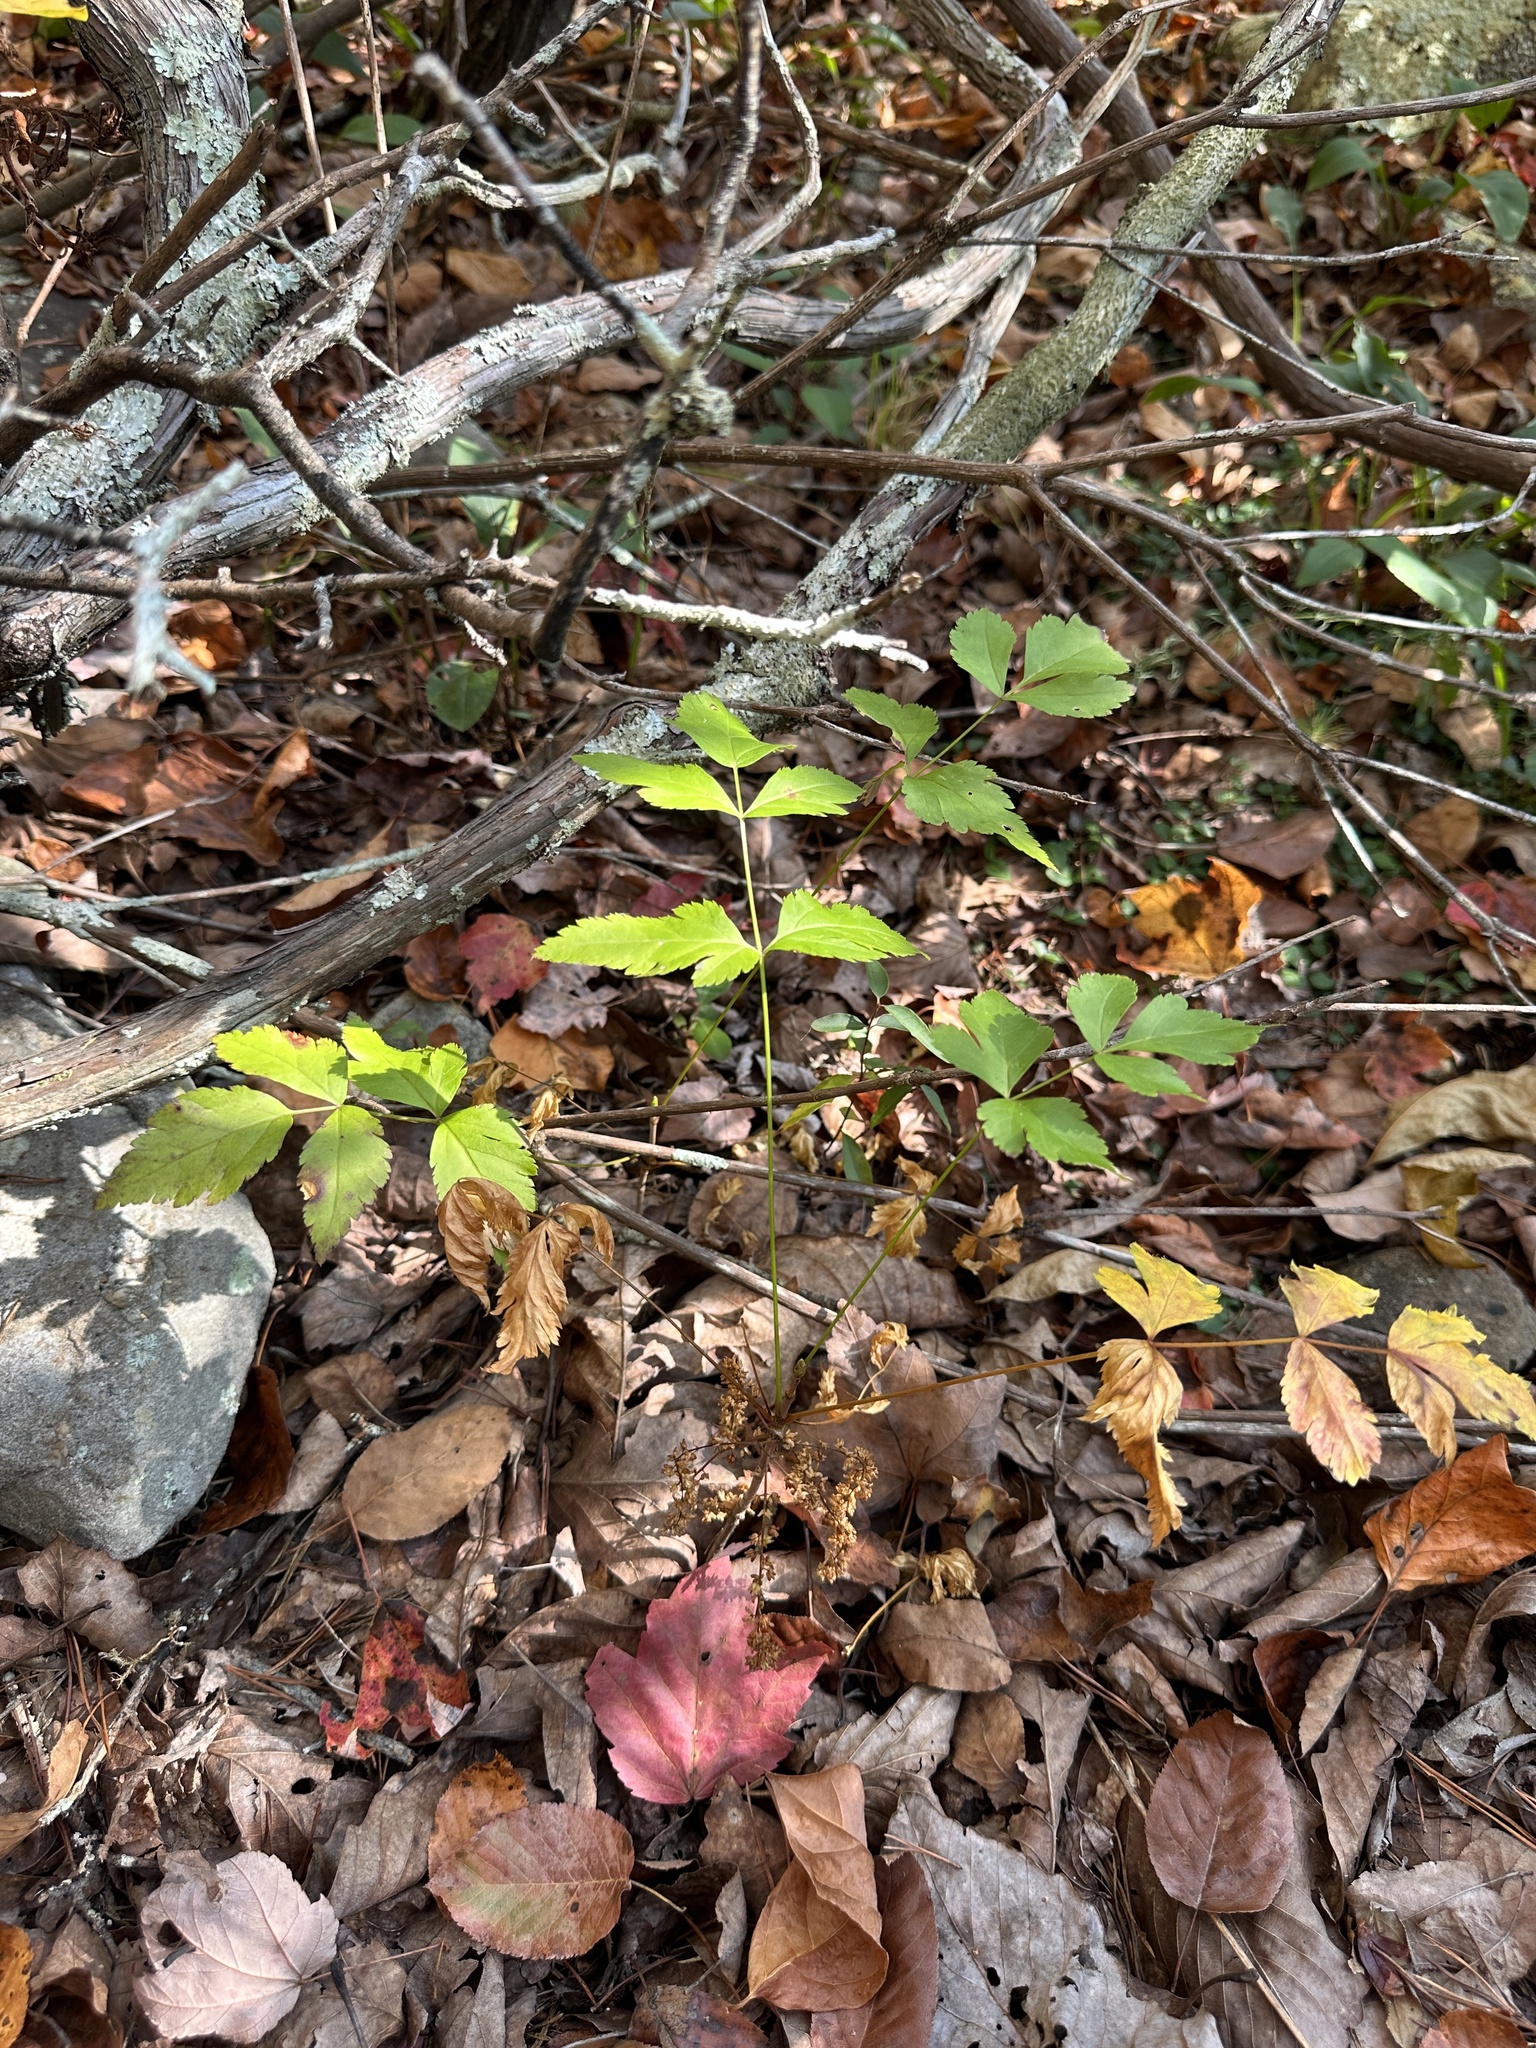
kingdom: Plantae
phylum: Tracheophyta
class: Magnoliopsida
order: Ranunculales
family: Ranunculaceae
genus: Xanthorhiza
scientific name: Xanthorhiza simplicissima
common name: Yellowroot
